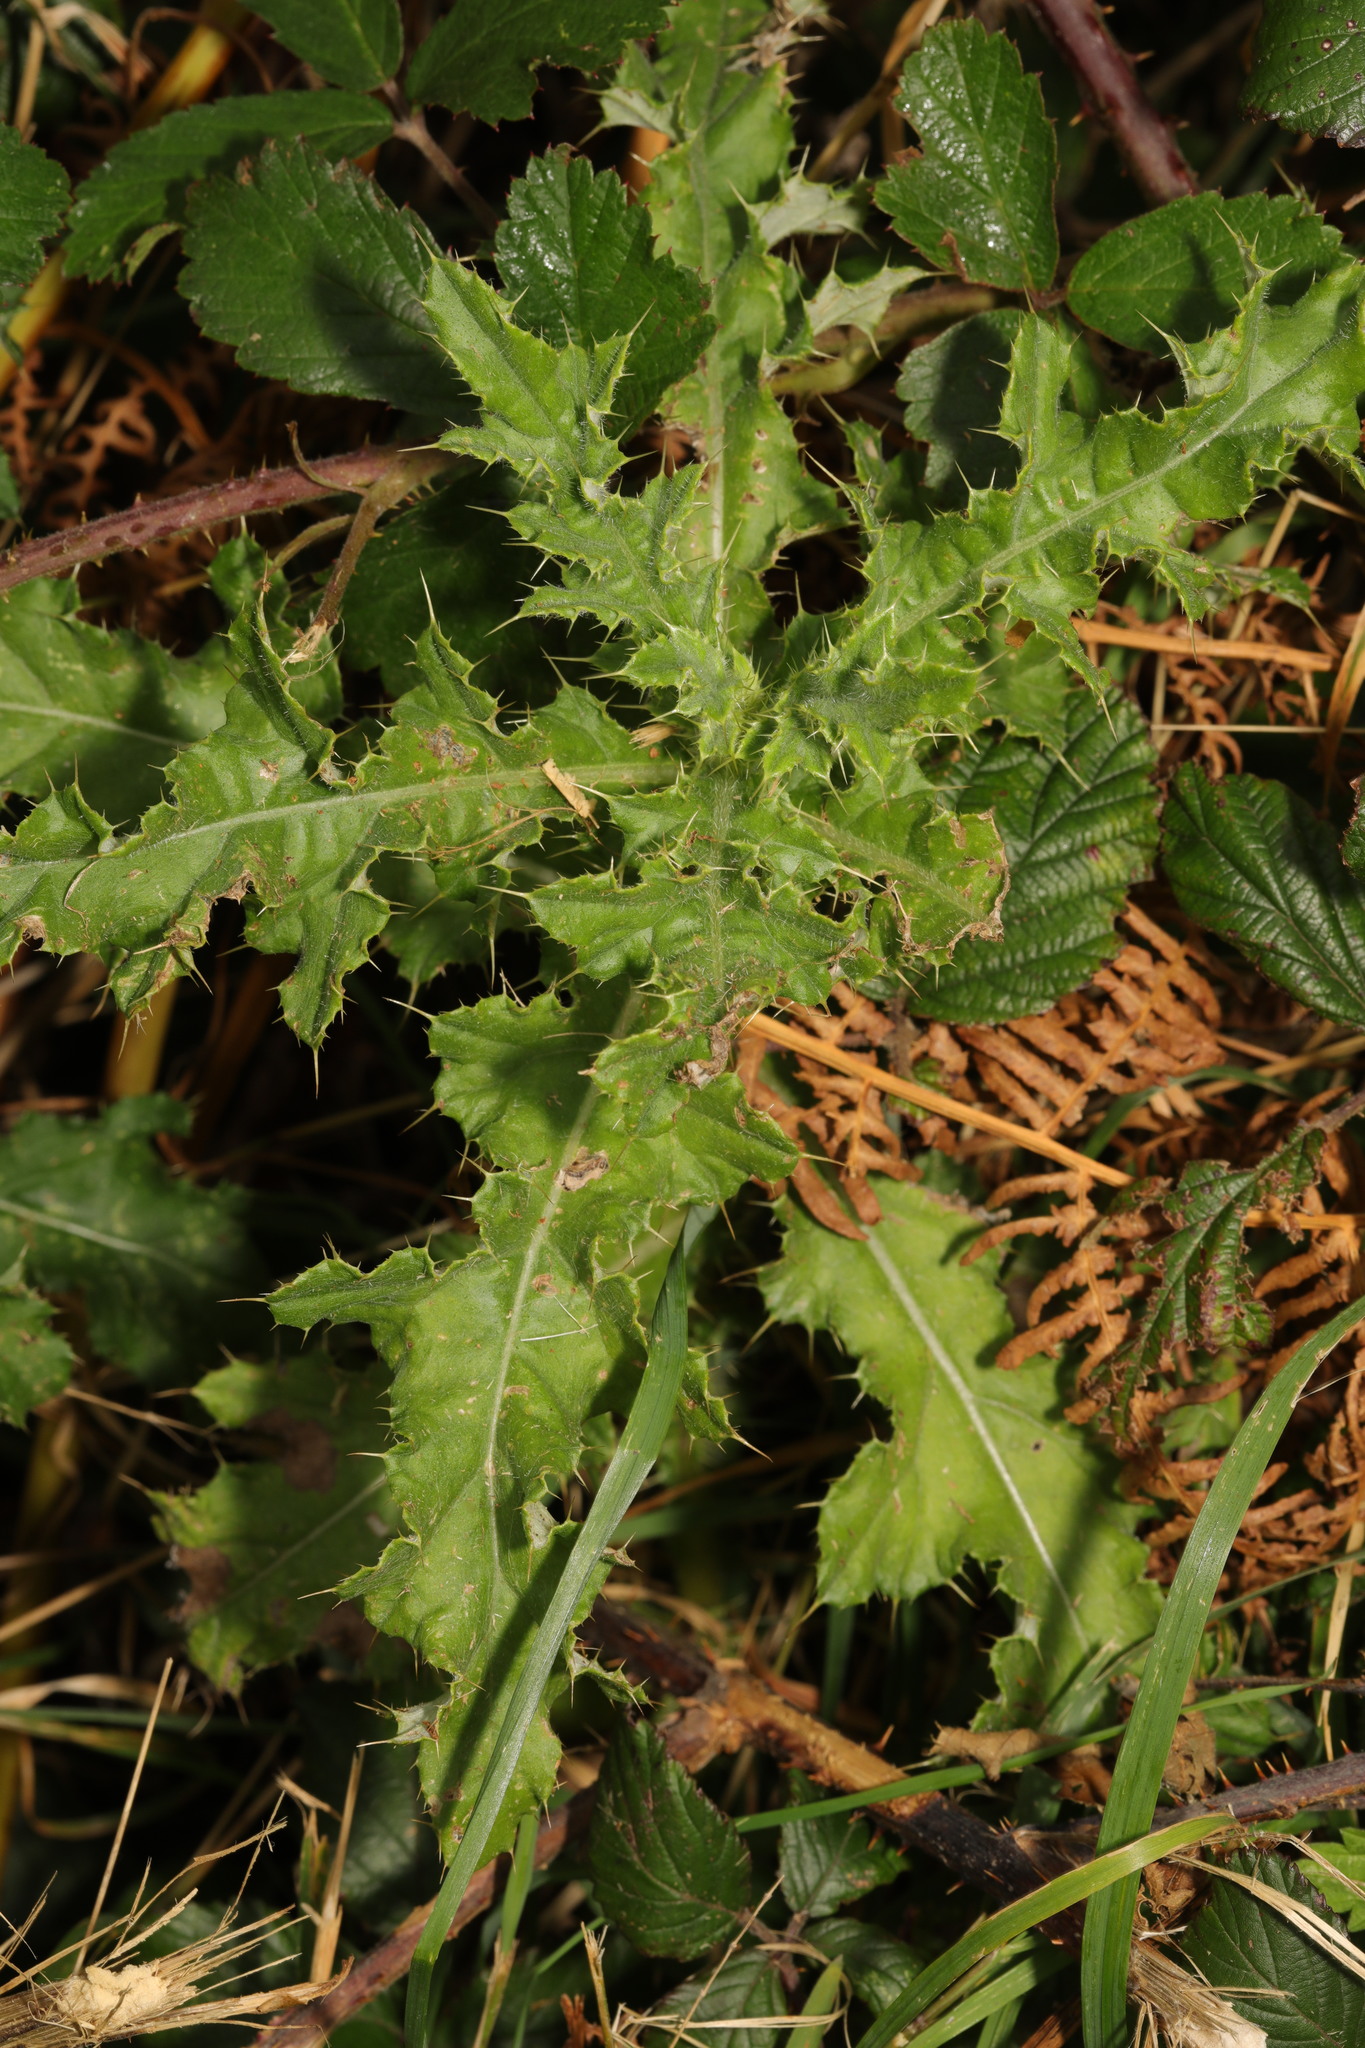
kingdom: Plantae
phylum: Tracheophyta
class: Magnoliopsida
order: Asterales
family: Asteraceae
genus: Cirsium
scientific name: Cirsium arvense
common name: Creeping thistle
